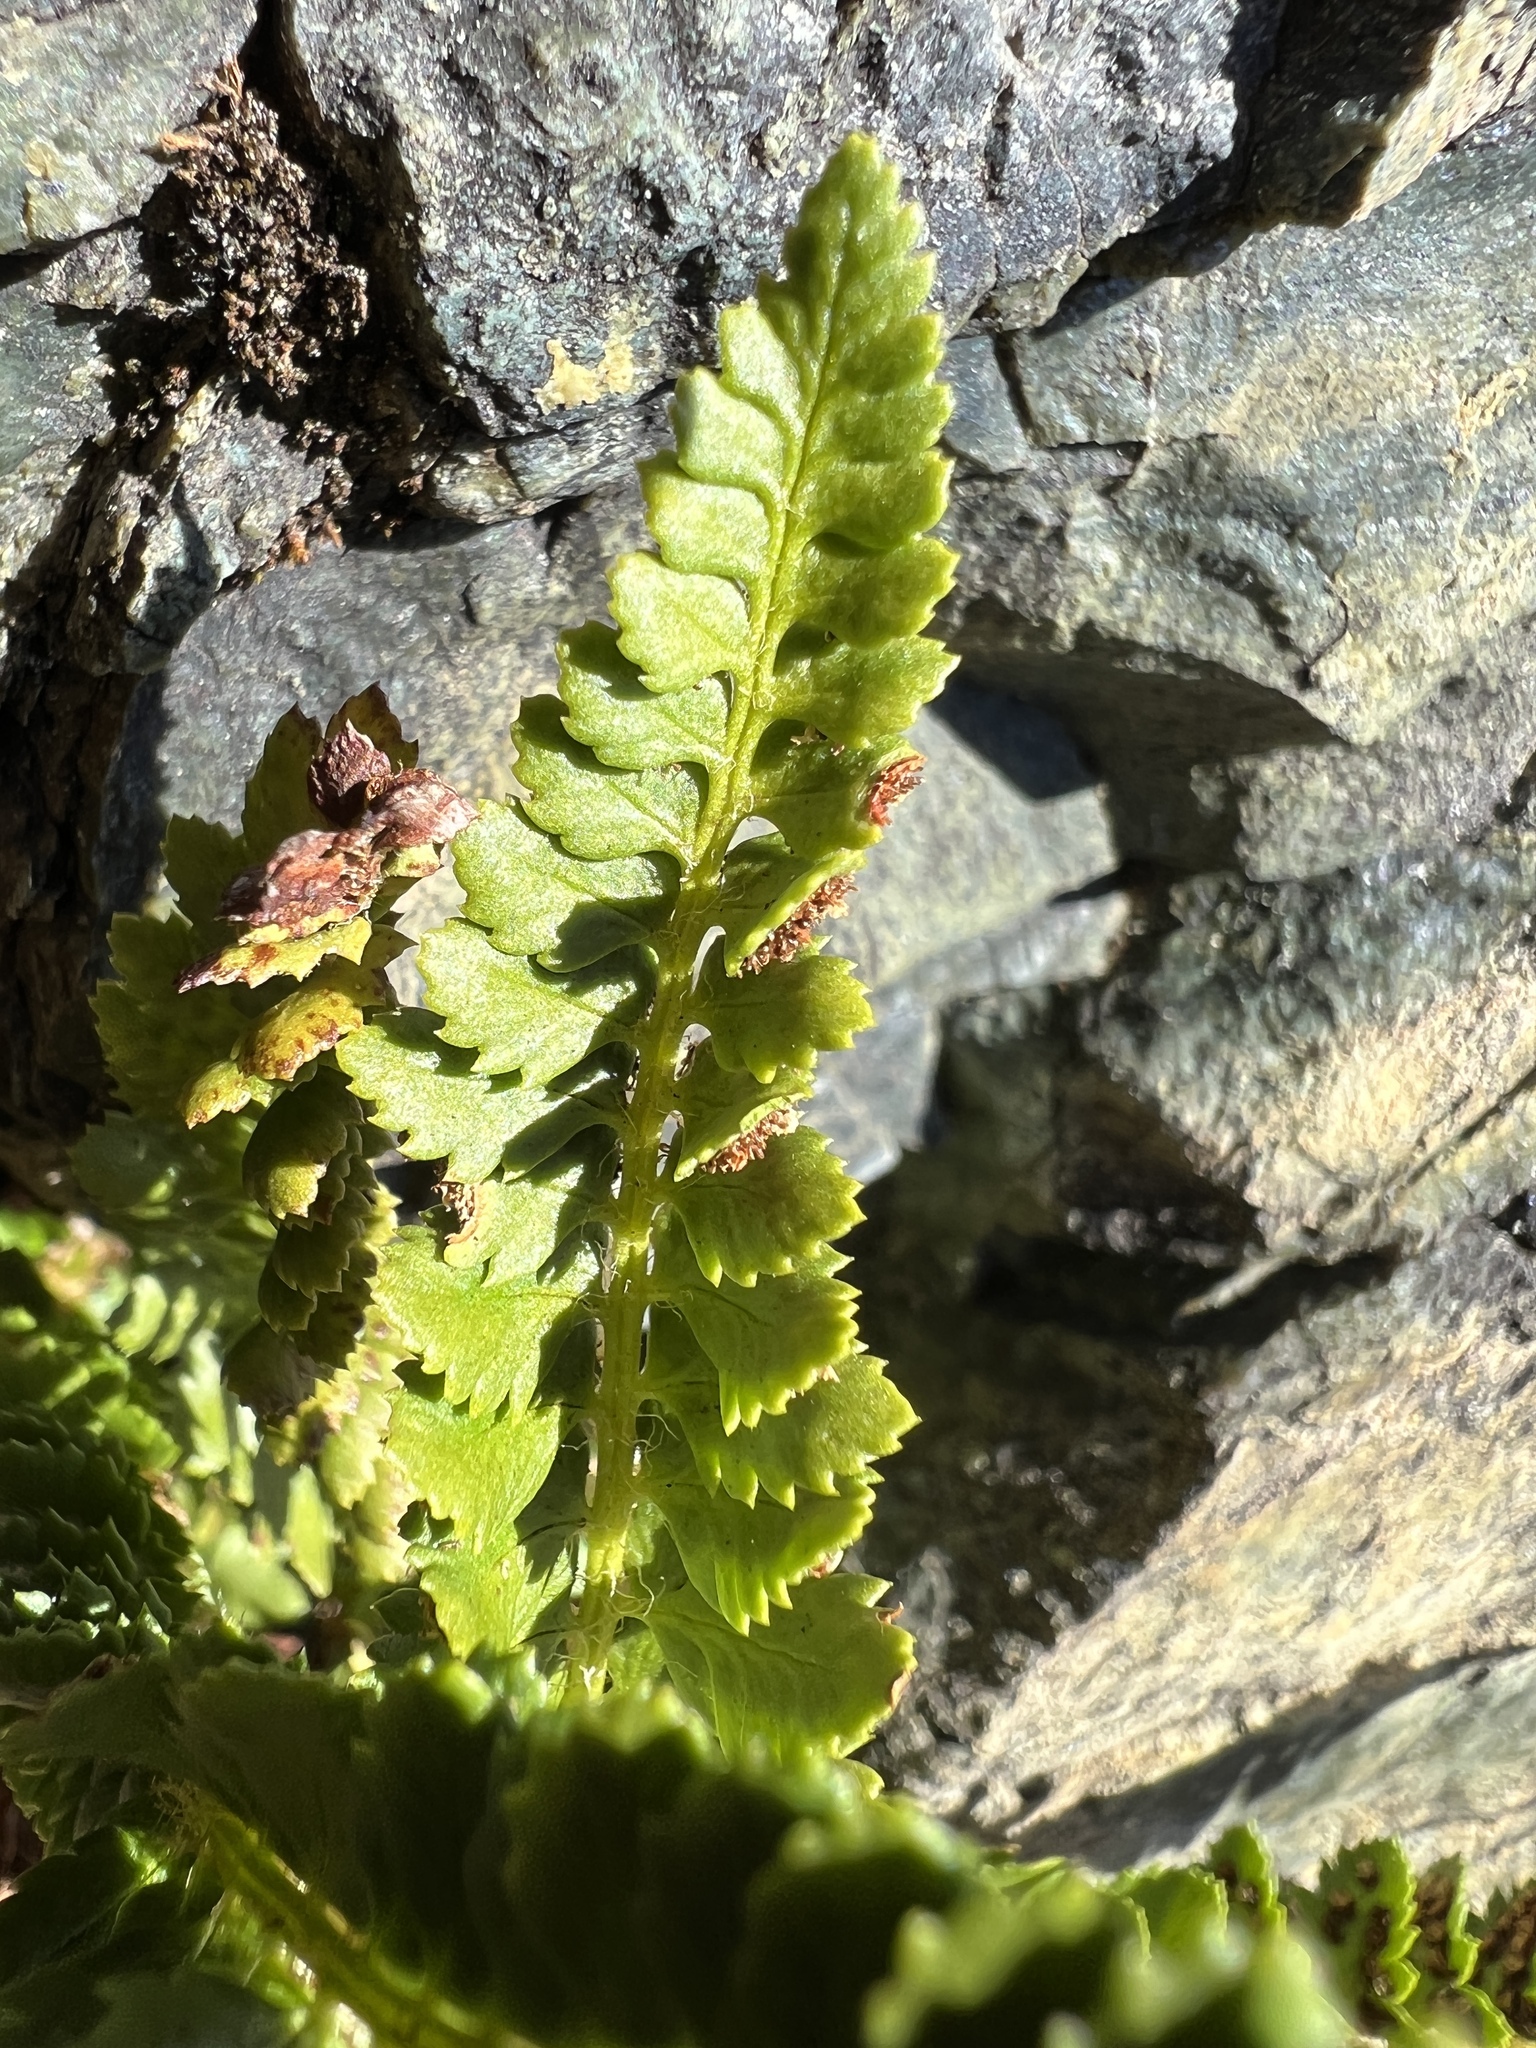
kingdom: Plantae
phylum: Tracheophyta
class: Polypodiopsida
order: Polypodiales
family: Dryopteridaceae
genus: Polystichum
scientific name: Polystichum kruckebergii
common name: Kruckeberg's holly fern
